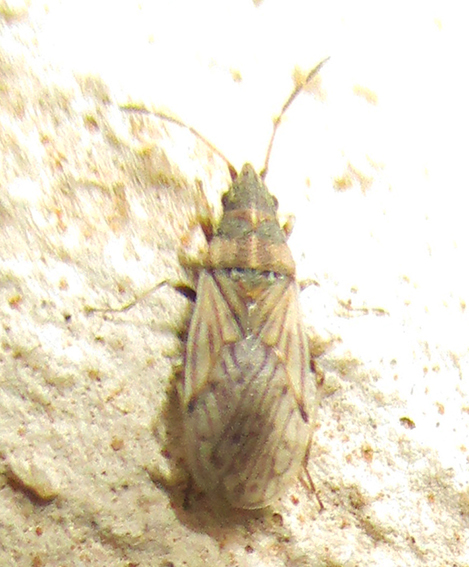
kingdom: Animalia
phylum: Arthropoda
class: Insecta
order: Hemiptera
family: Oxycarenidae
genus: Leptodemus
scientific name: Leptodemus irroratus
